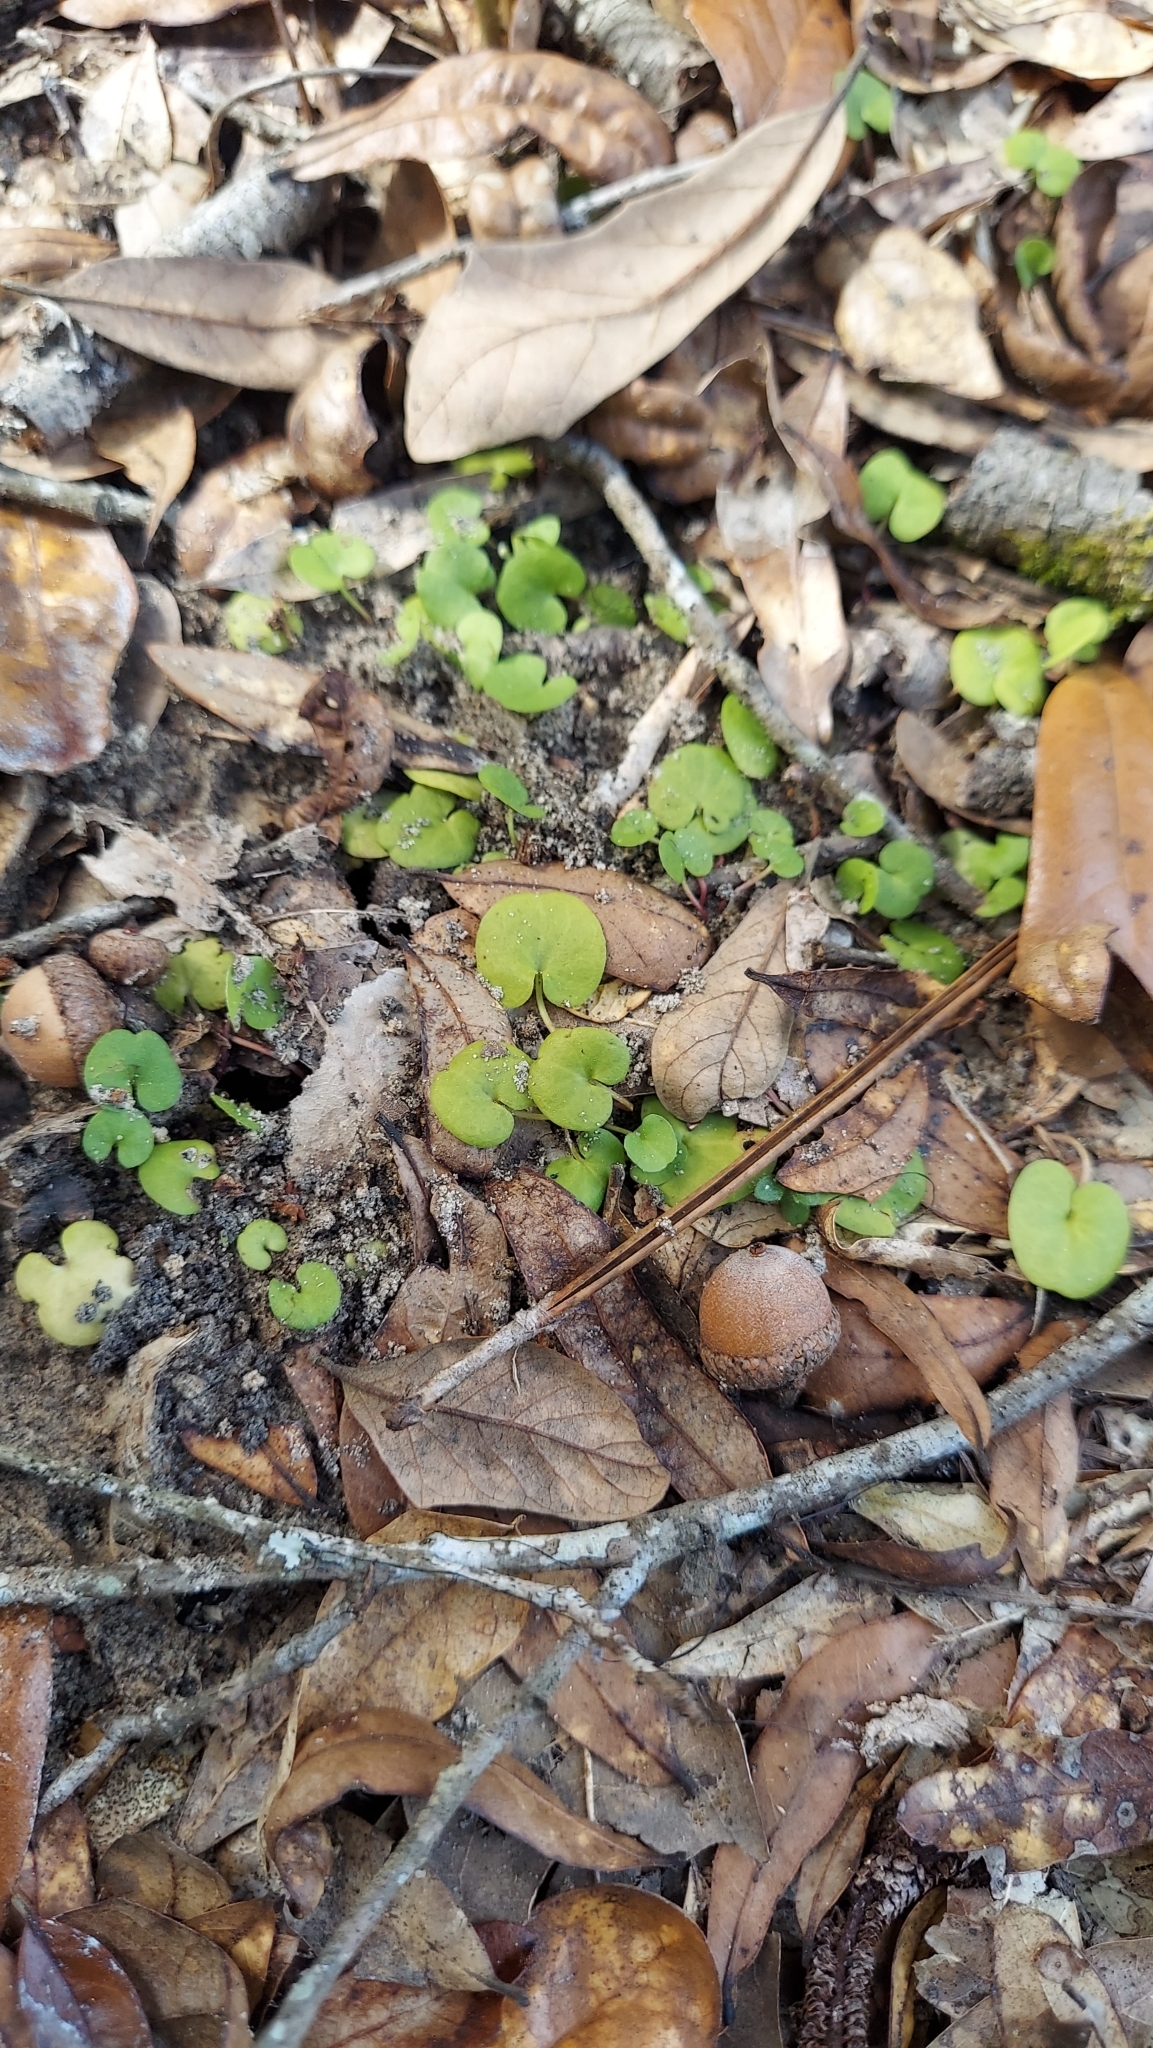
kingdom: Plantae
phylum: Tracheophyta
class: Magnoliopsida
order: Solanales
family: Convolvulaceae
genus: Dichondra
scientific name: Dichondra carolinensis
